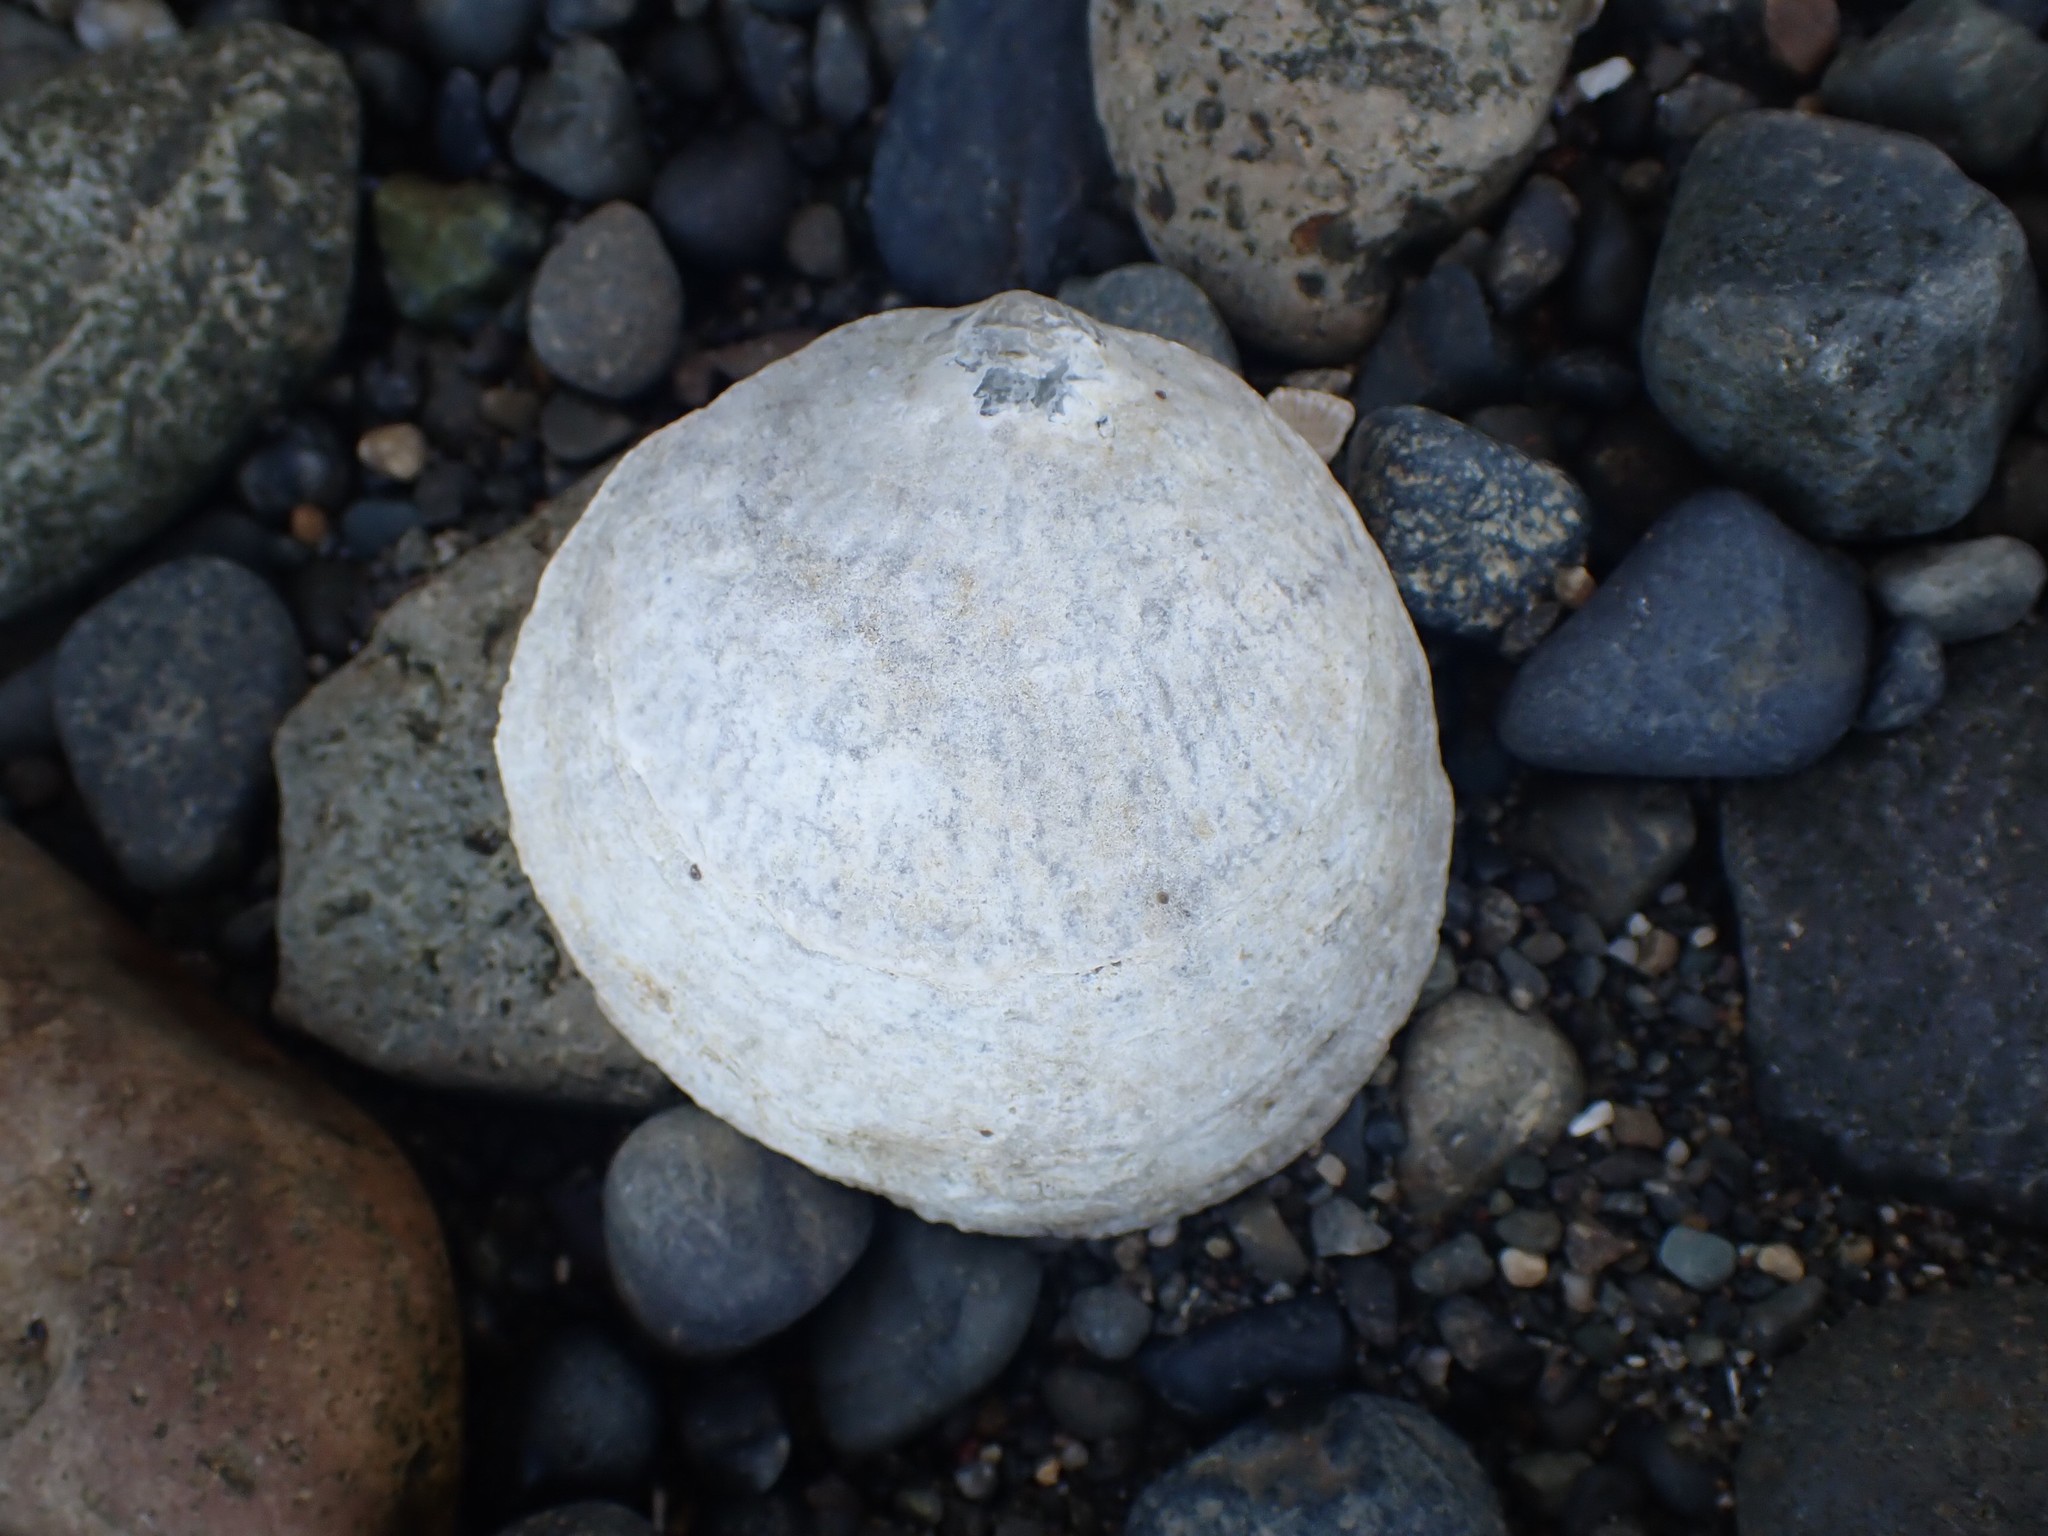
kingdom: Animalia
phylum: Mollusca
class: Bivalvia
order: Pectinida
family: Anomiidae
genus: Pododesmus
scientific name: Pododesmus macrochisma
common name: Alaska jingle
